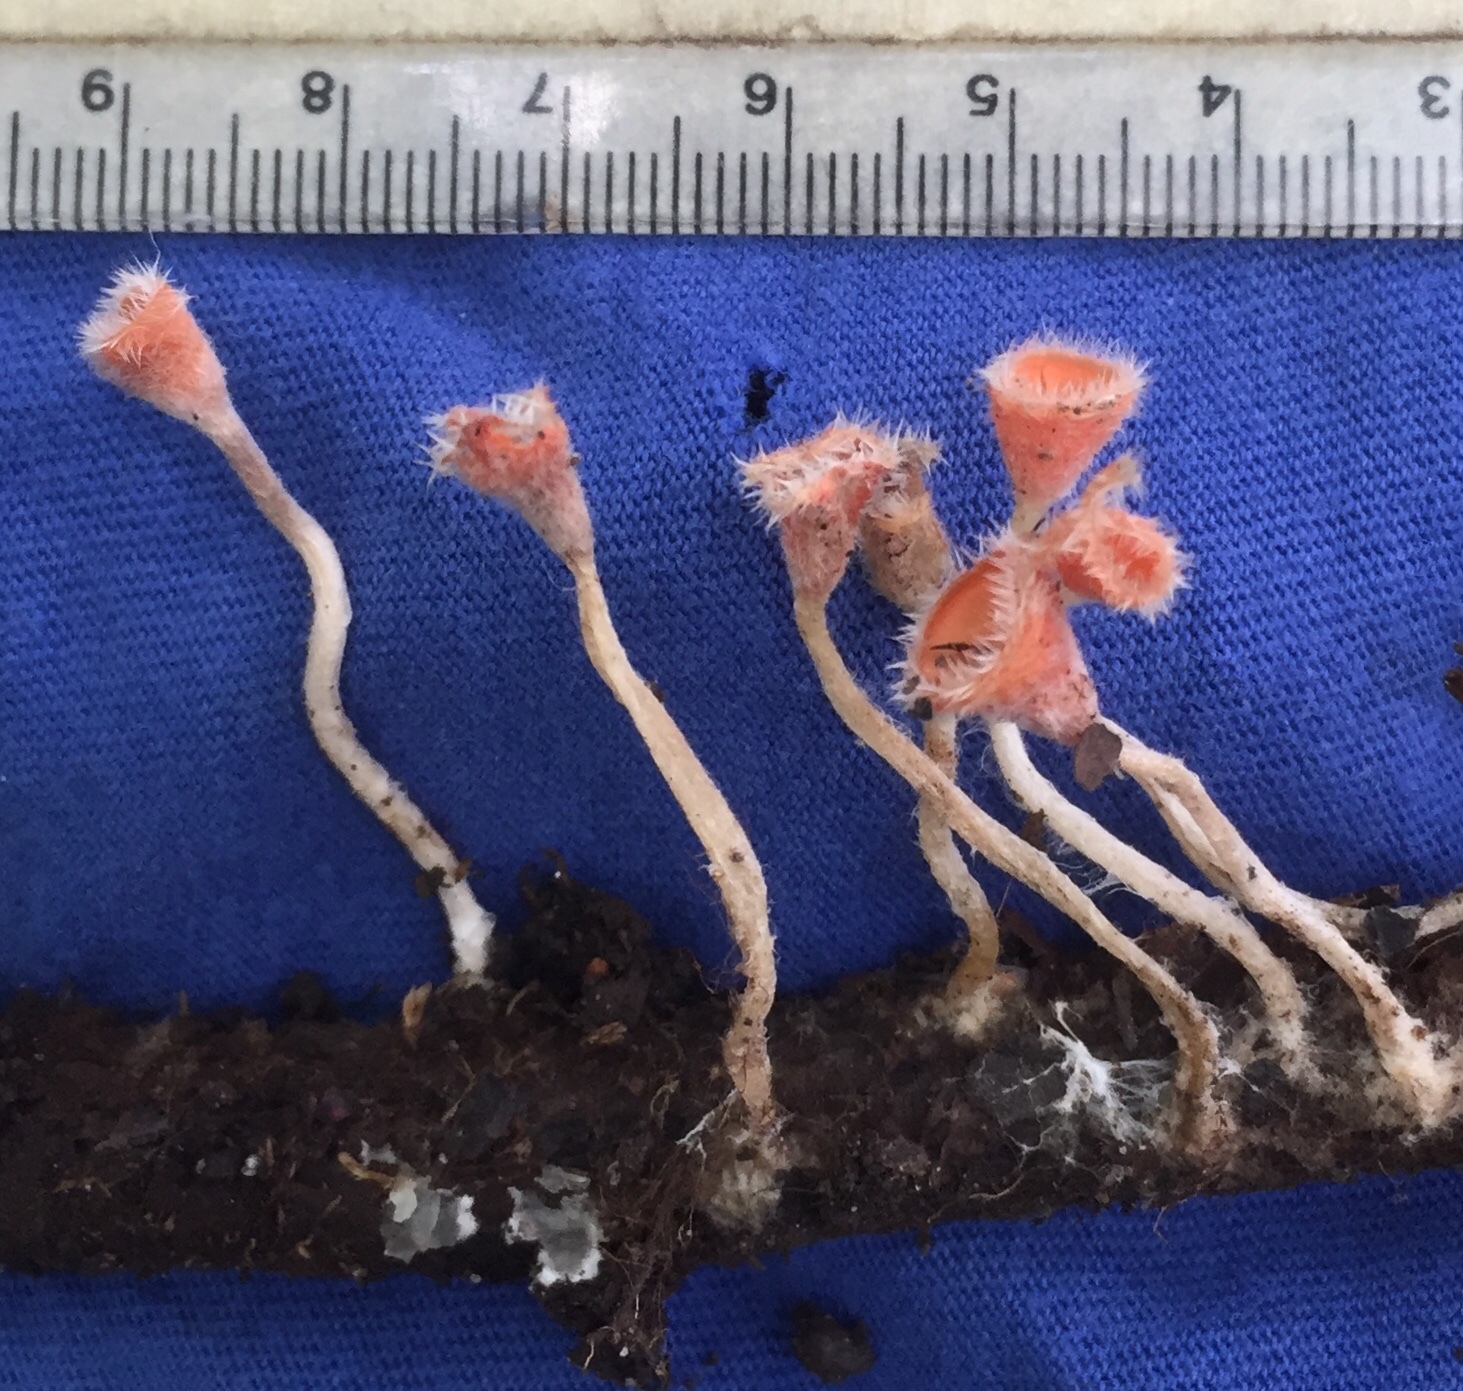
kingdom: Fungi
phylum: Ascomycota
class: Pezizomycetes
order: Pezizales
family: Sarcoscyphaceae
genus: Microstoma
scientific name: Microstoma floccosum
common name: Pink fringed faery cup
